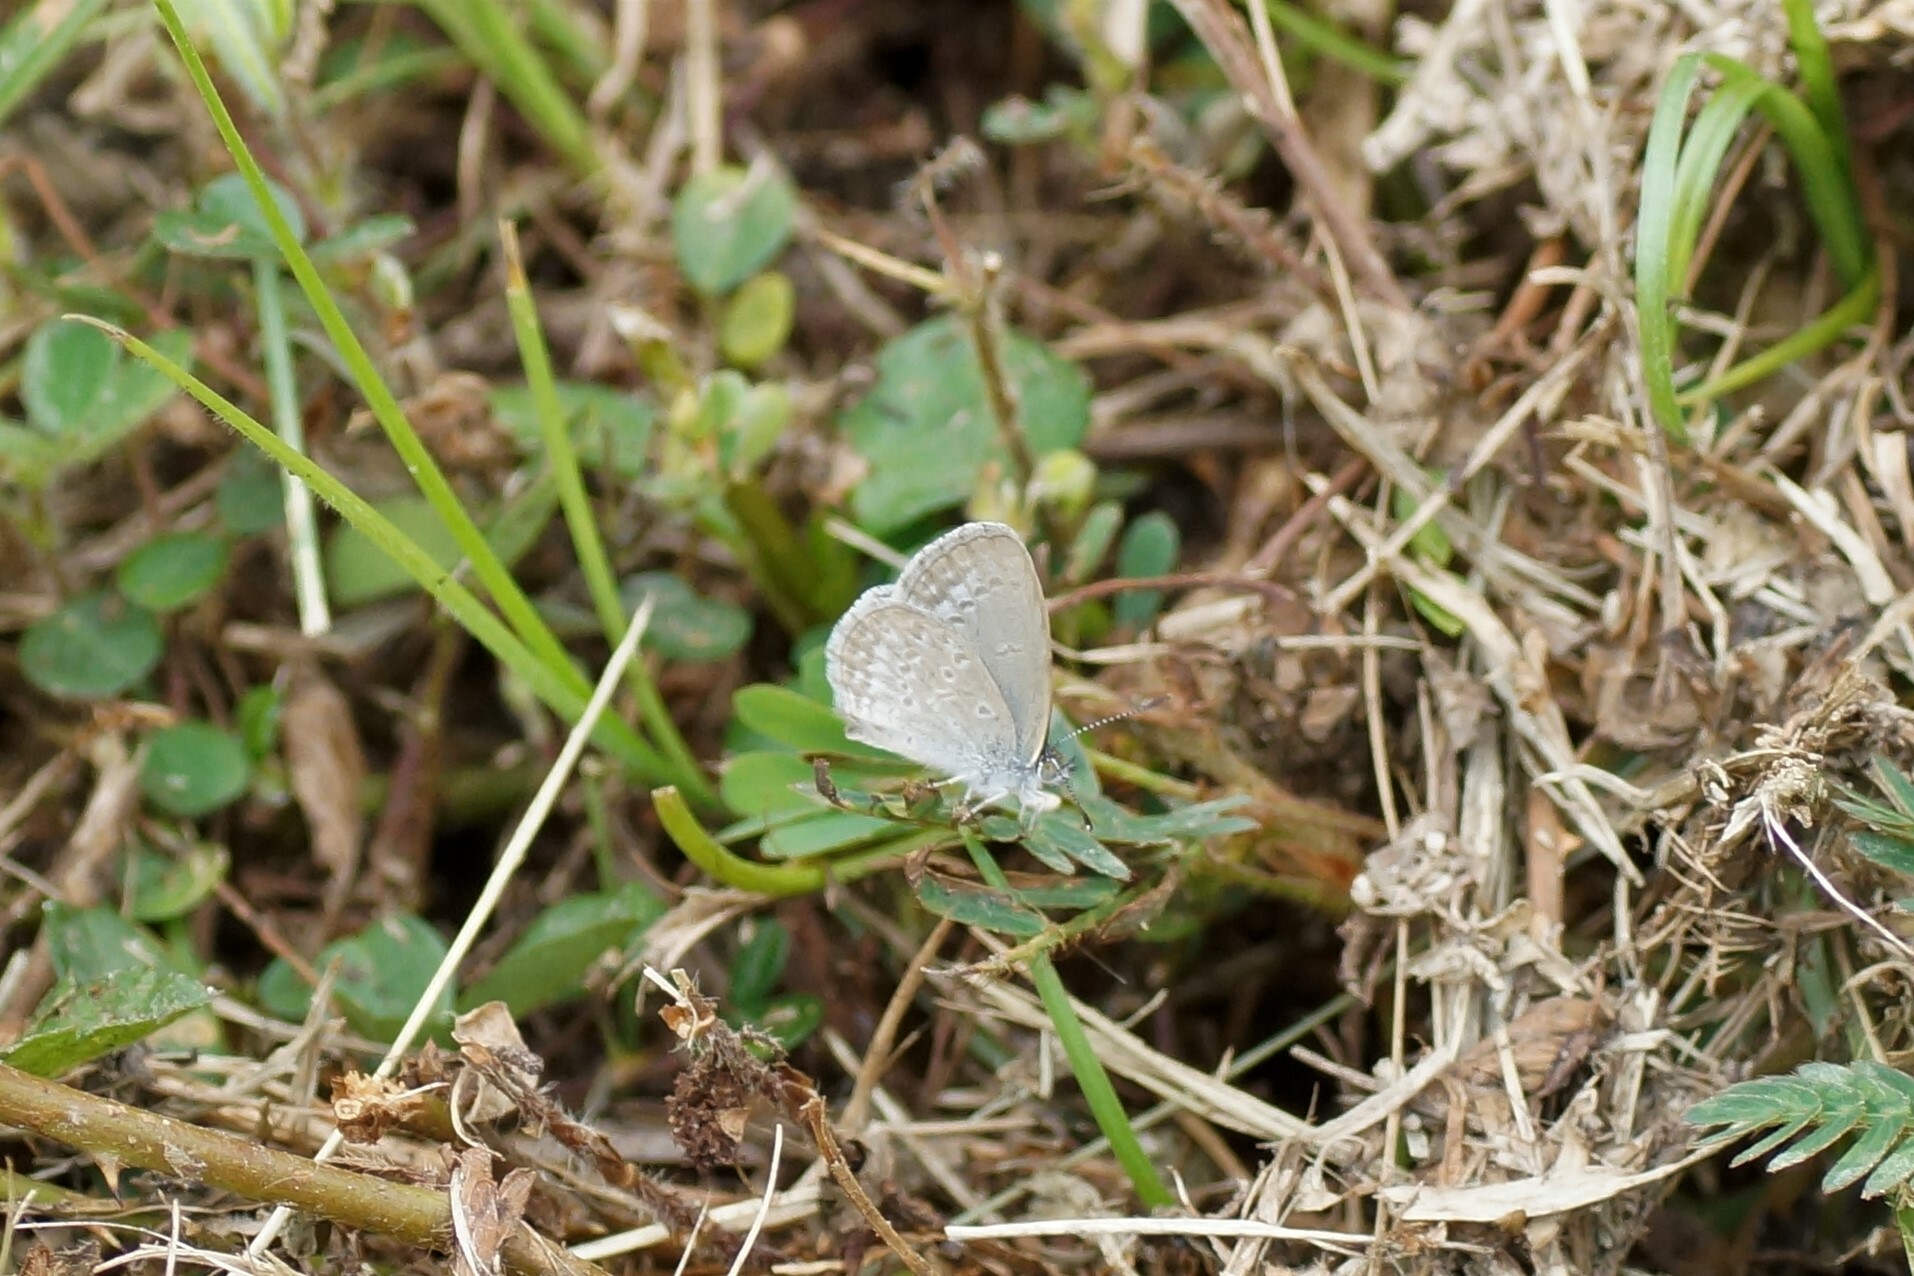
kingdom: Animalia
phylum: Arthropoda
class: Insecta
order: Lepidoptera
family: Lycaenidae
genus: Zizina
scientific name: Zizina otis
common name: Lesser grass blue
